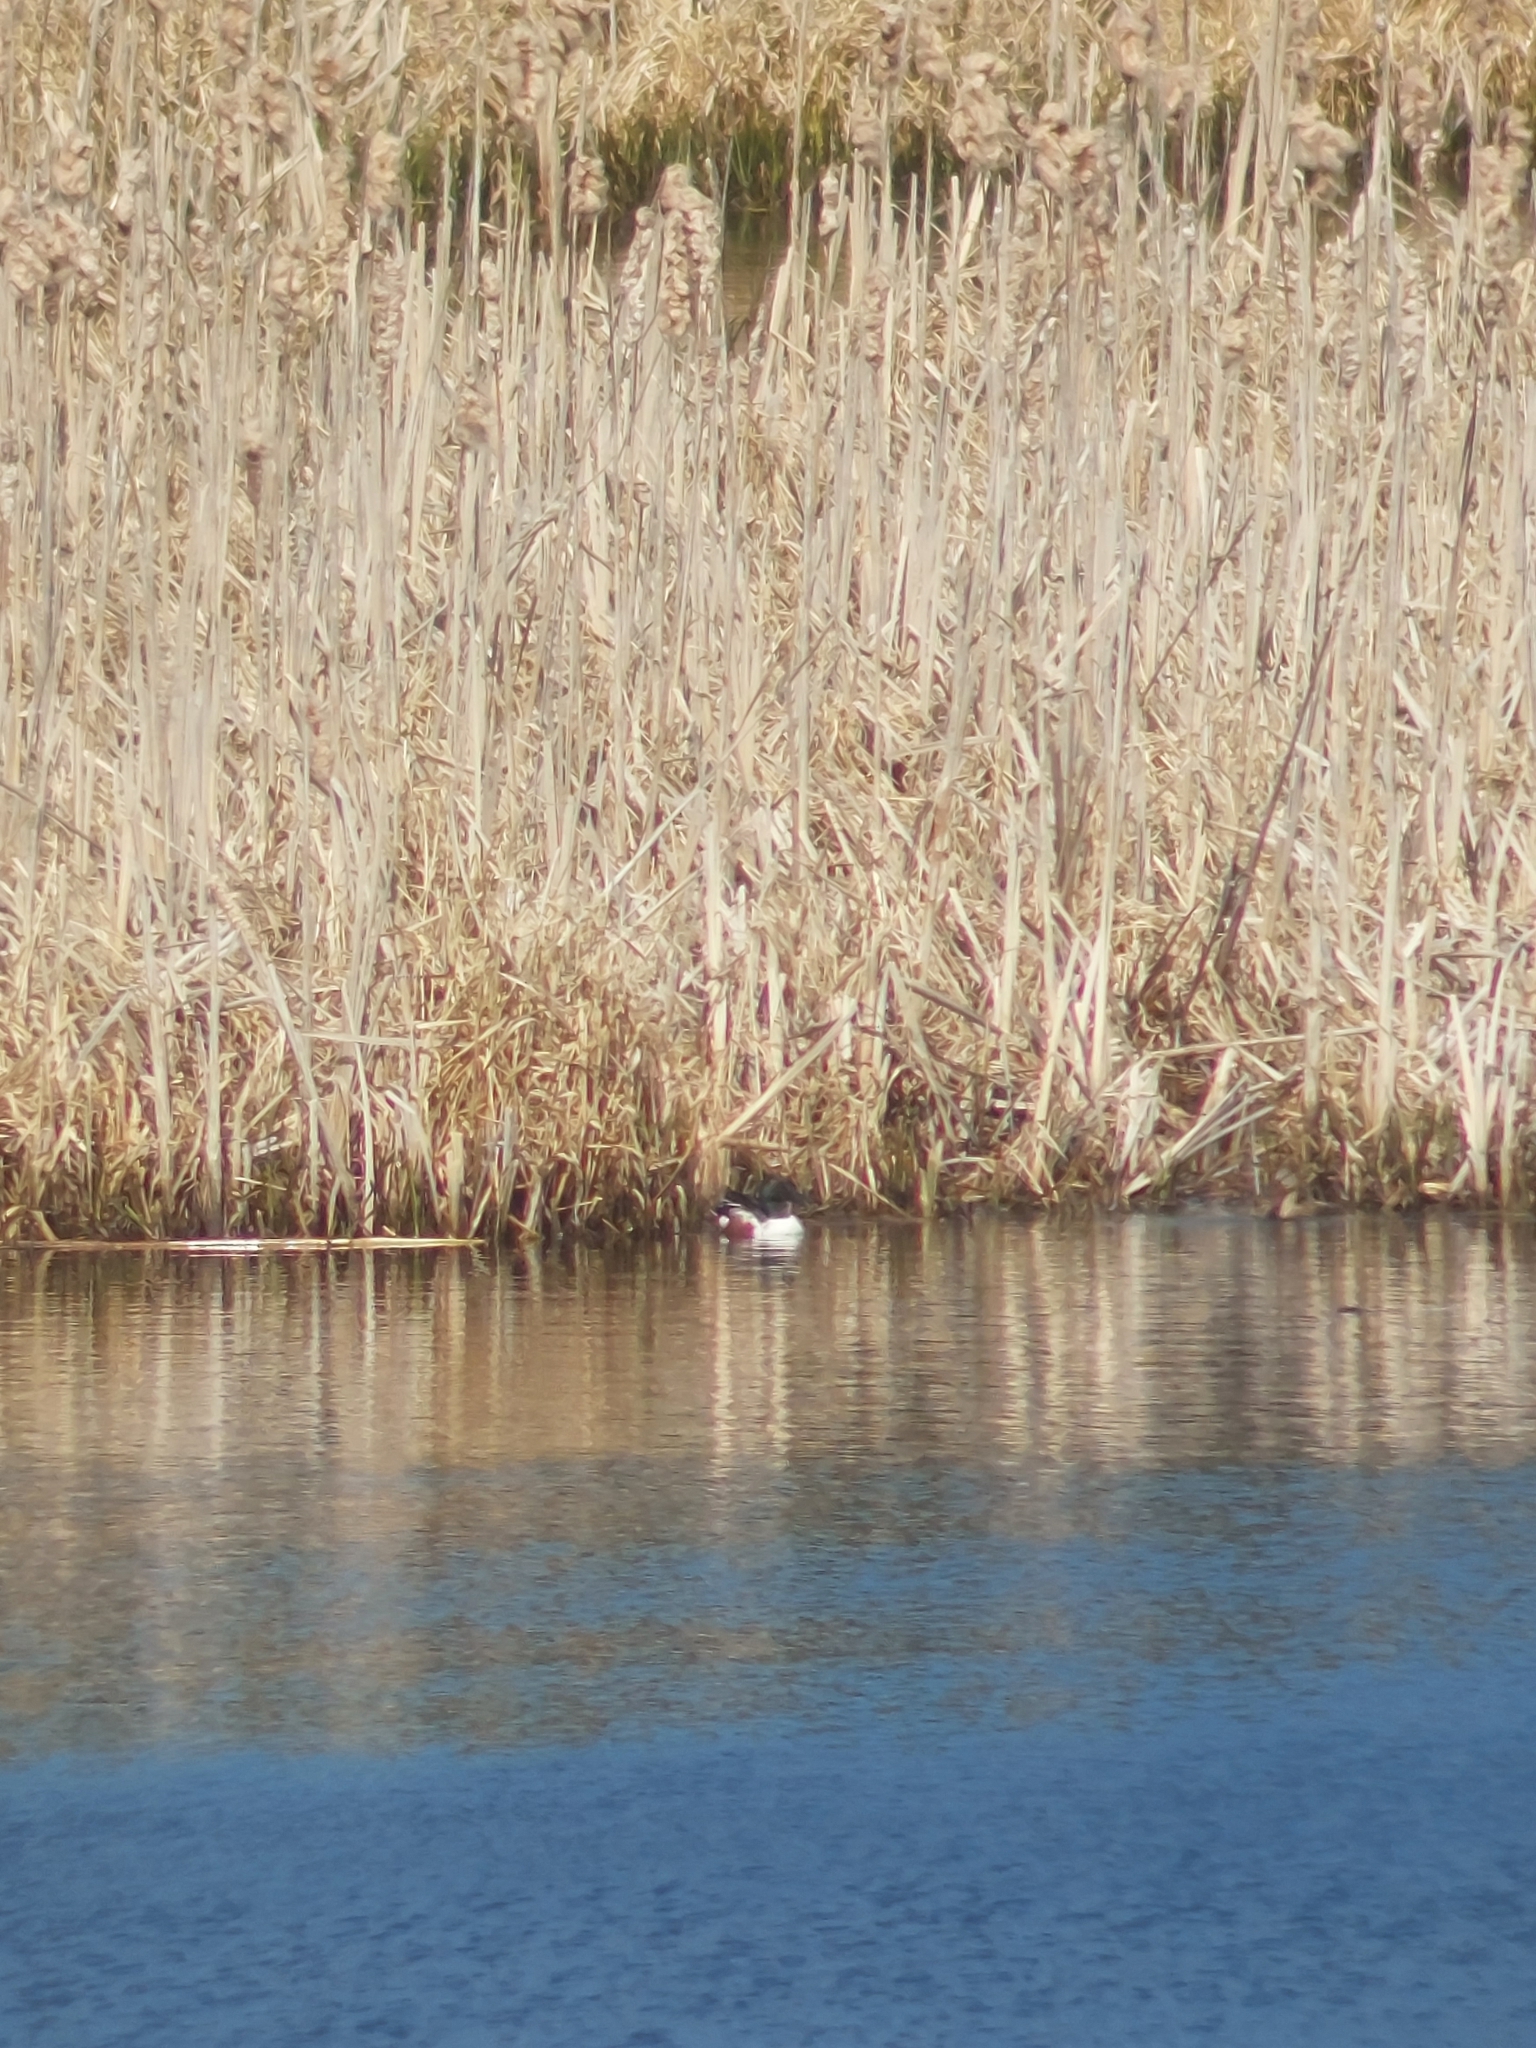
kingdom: Animalia
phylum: Chordata
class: Aves
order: Anseriformes
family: Anatidae
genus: Spatula
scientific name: Spatula clypeata
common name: Northern shoveler
